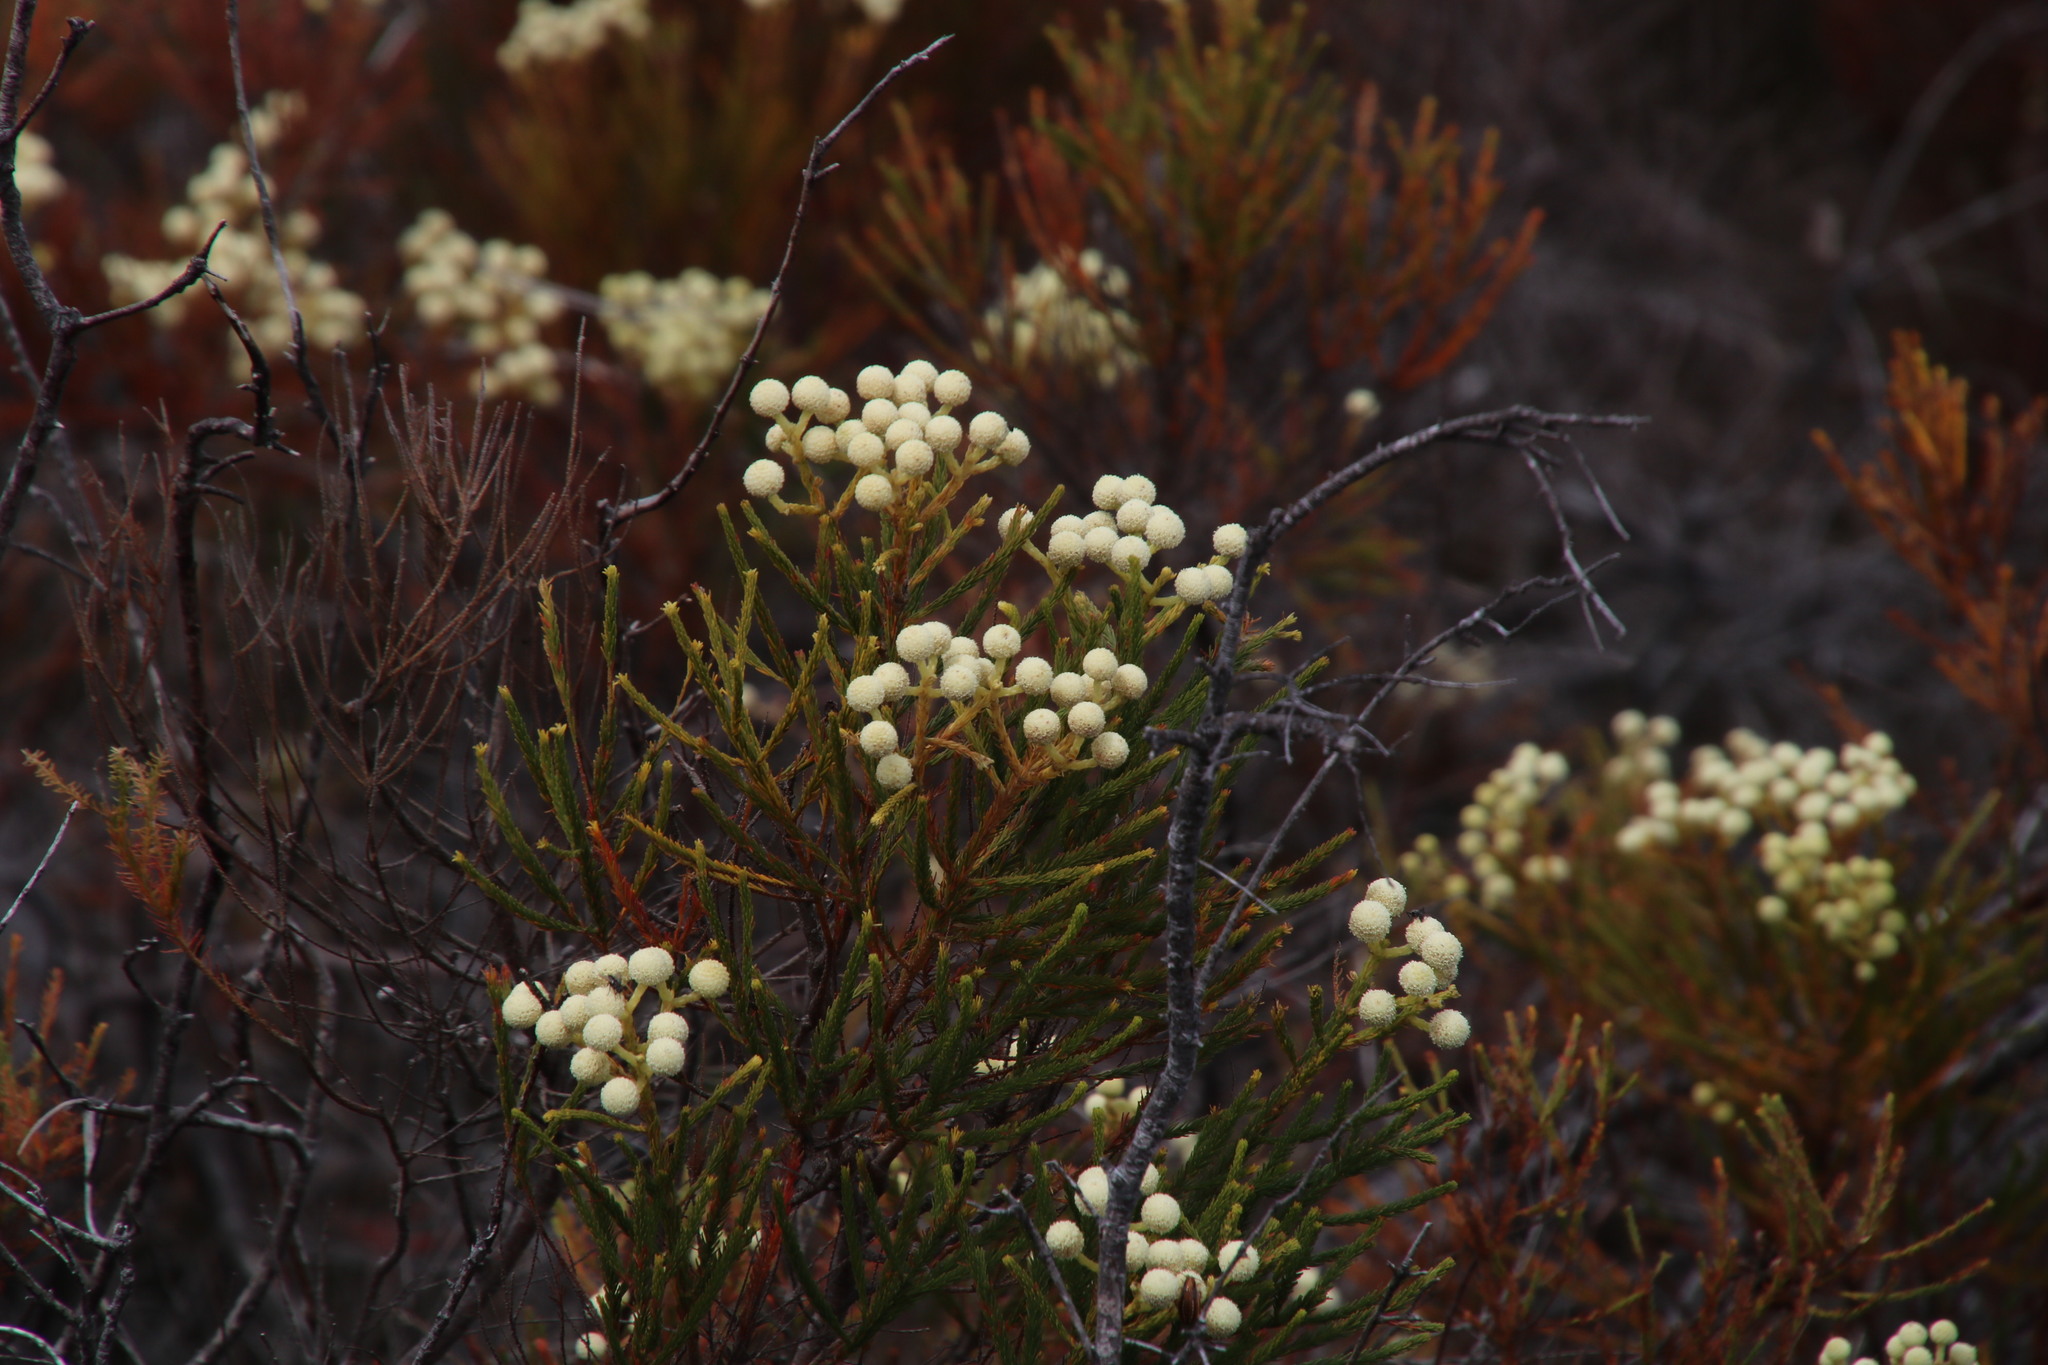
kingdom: Plantae
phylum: Tracheophyta
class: Magnoliopsida
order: Bruniales
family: Bruniaceae
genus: Berzelia
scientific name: Berzelia lanuginosa
